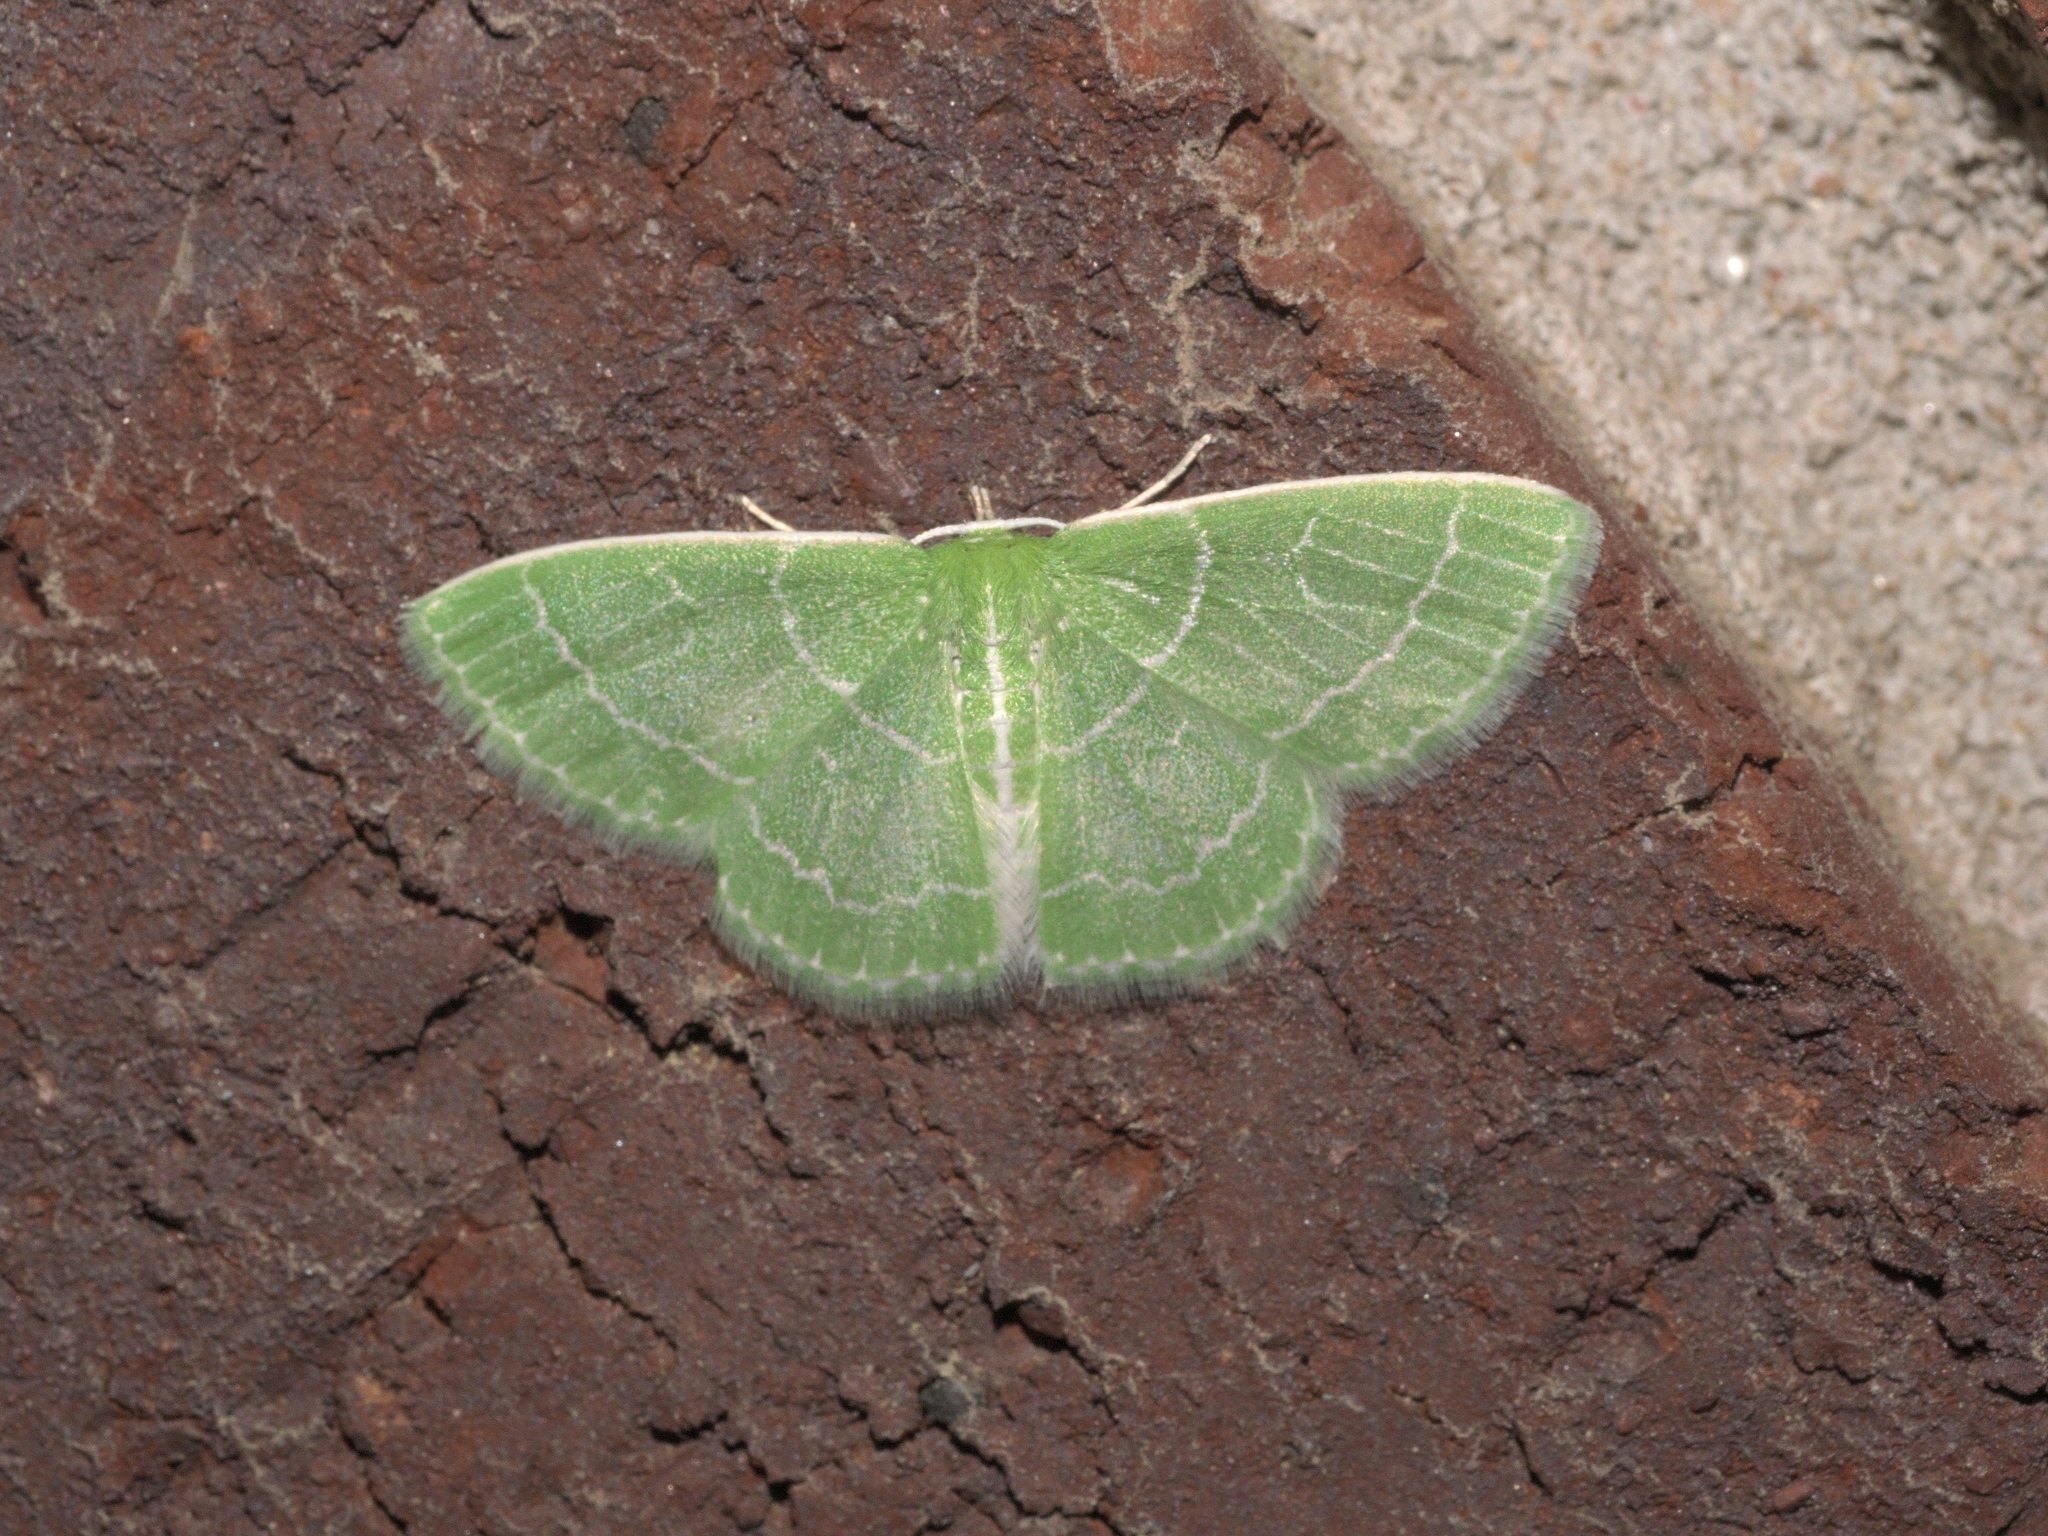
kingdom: Animalia
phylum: Arthropoda
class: Insecta
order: Lepidoptera
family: Geometridae
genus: Synchlora
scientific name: Synchlora aerata
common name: Wavy-lined emerald
